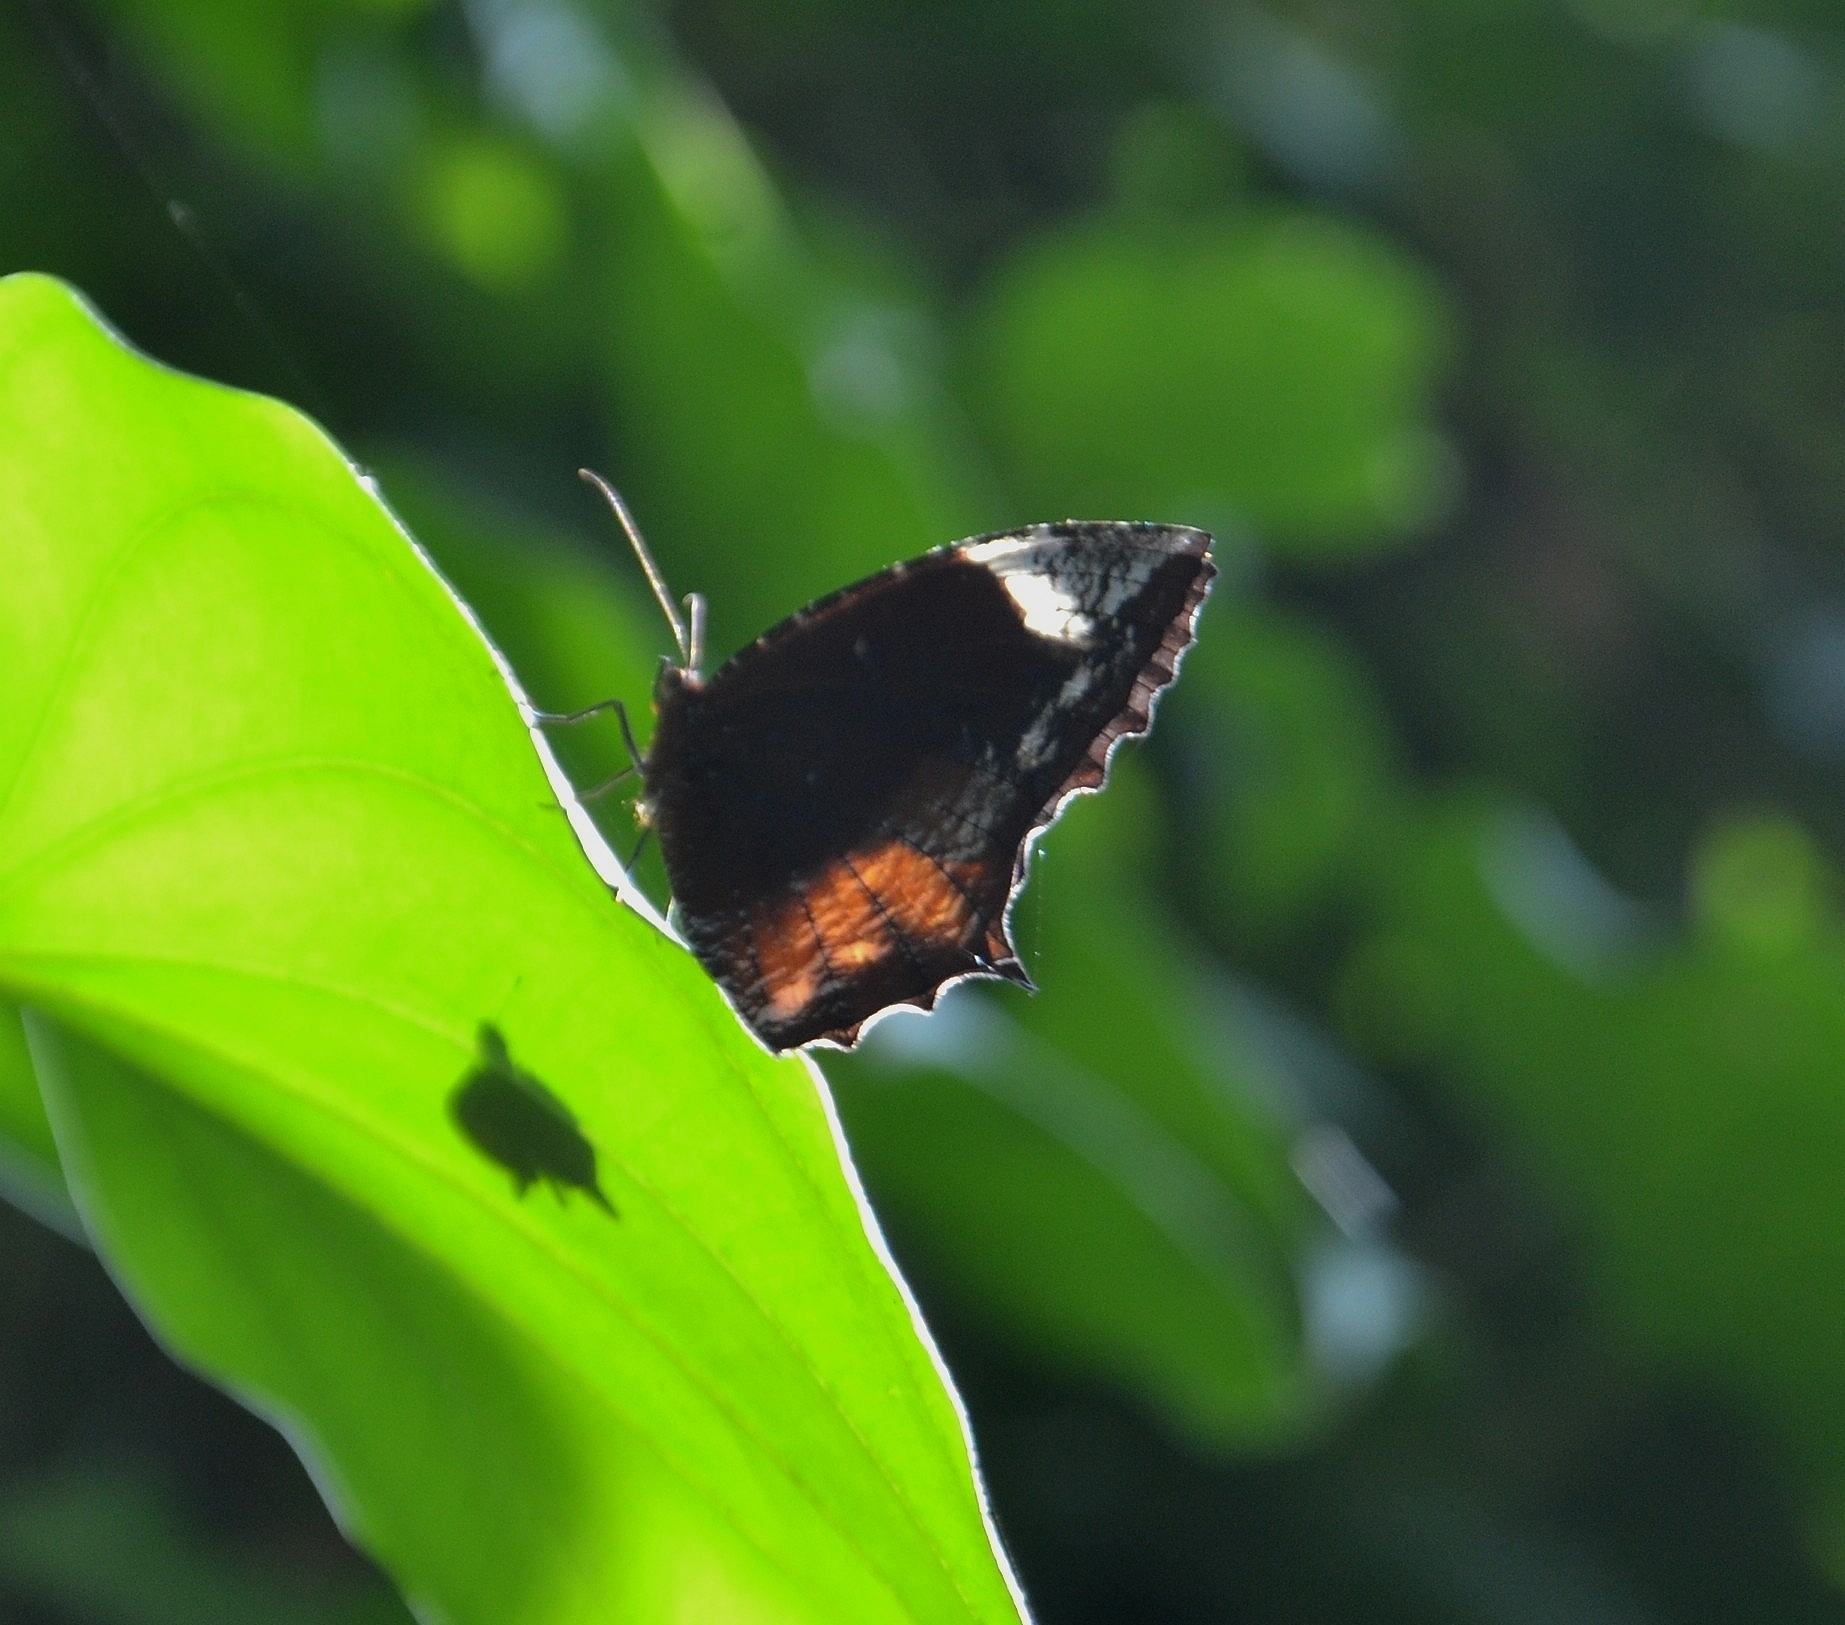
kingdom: Animalia
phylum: Arthropoda
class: Insecta
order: Lepidoptera
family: Nymphalidae
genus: Elymnias
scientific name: Elymnias caudata
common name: Tailed palmfly
